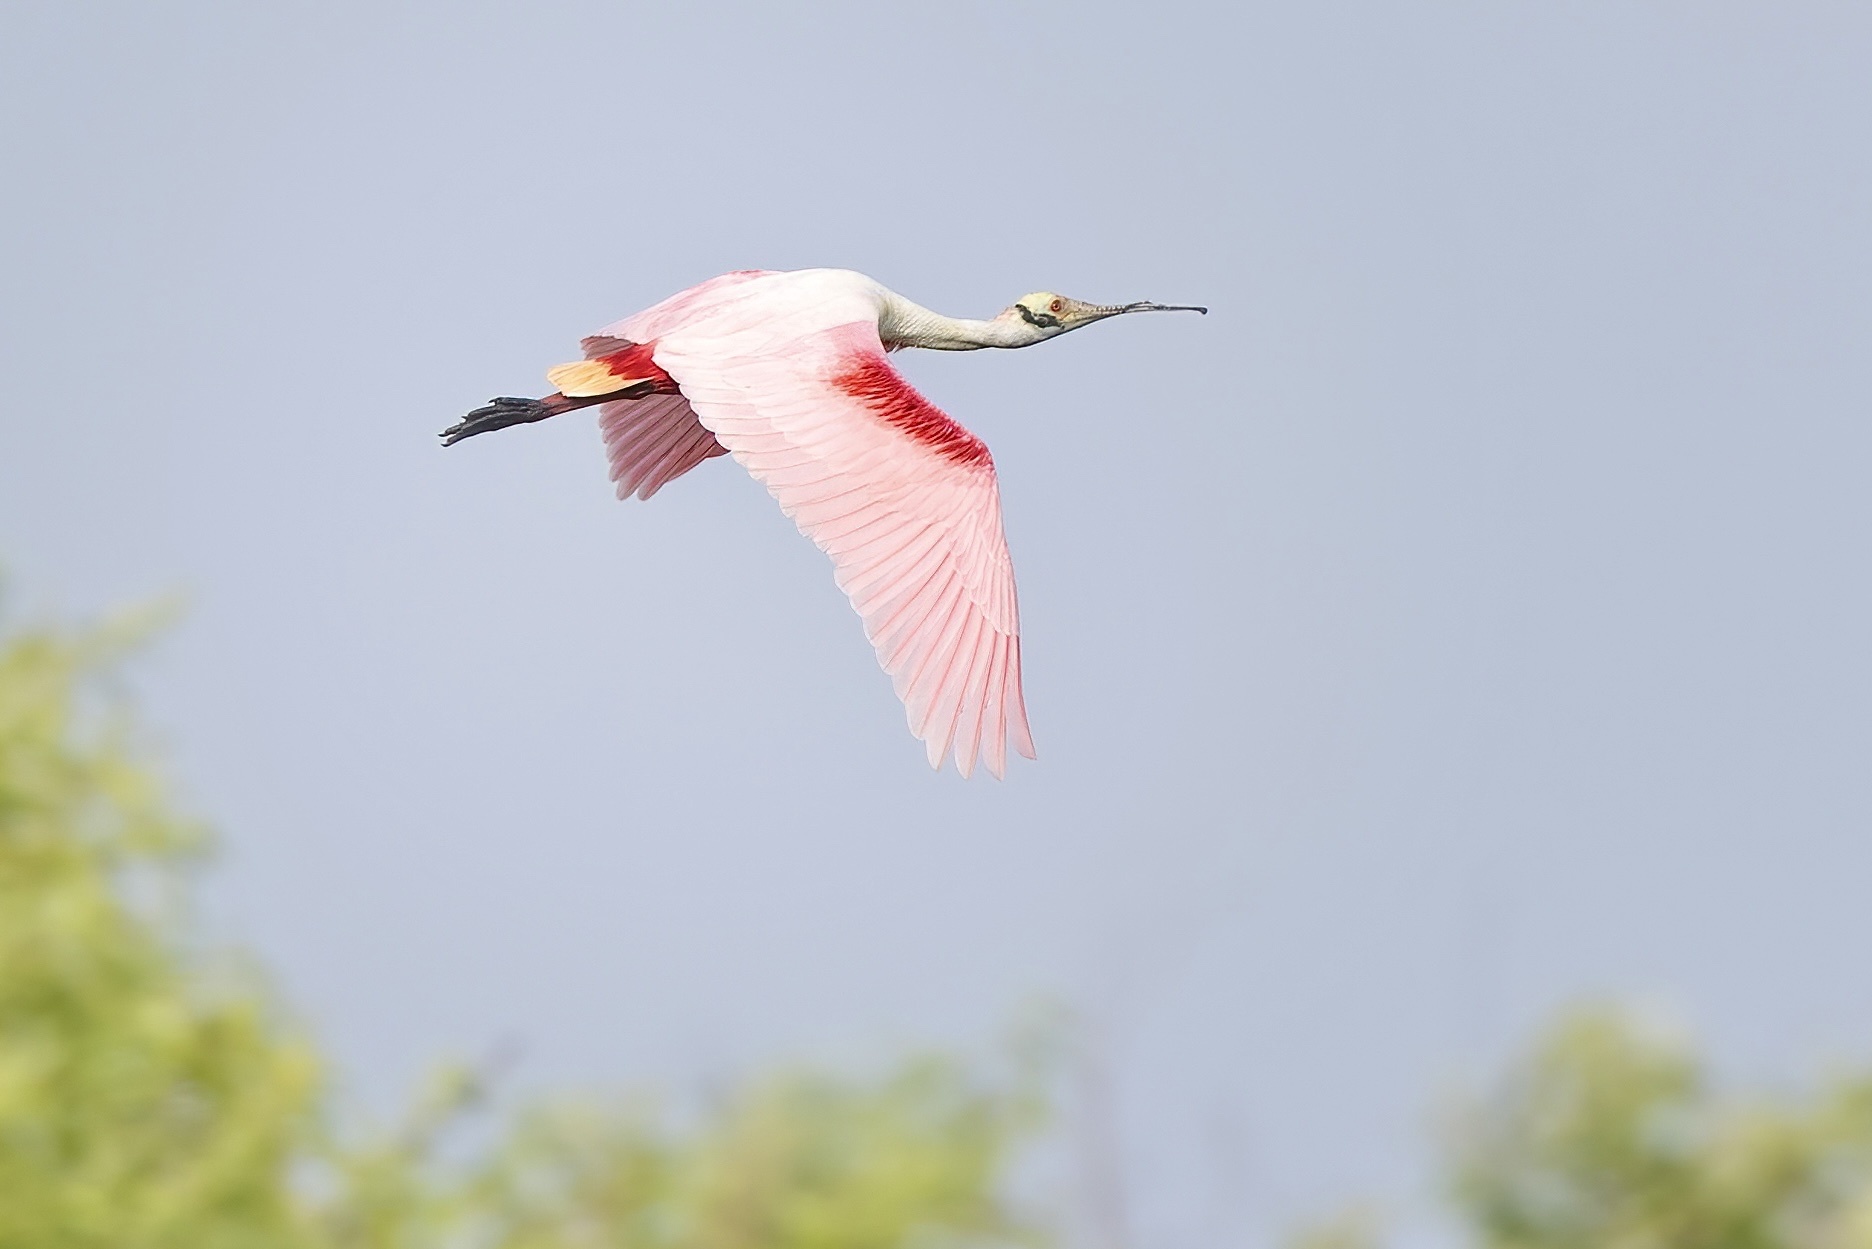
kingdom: Animalia
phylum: Chordata
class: Aves
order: Pelecaniformes
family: Threskiornithidae
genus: Platalea
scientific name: Platalea ajaja
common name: Roseate spoonbill
